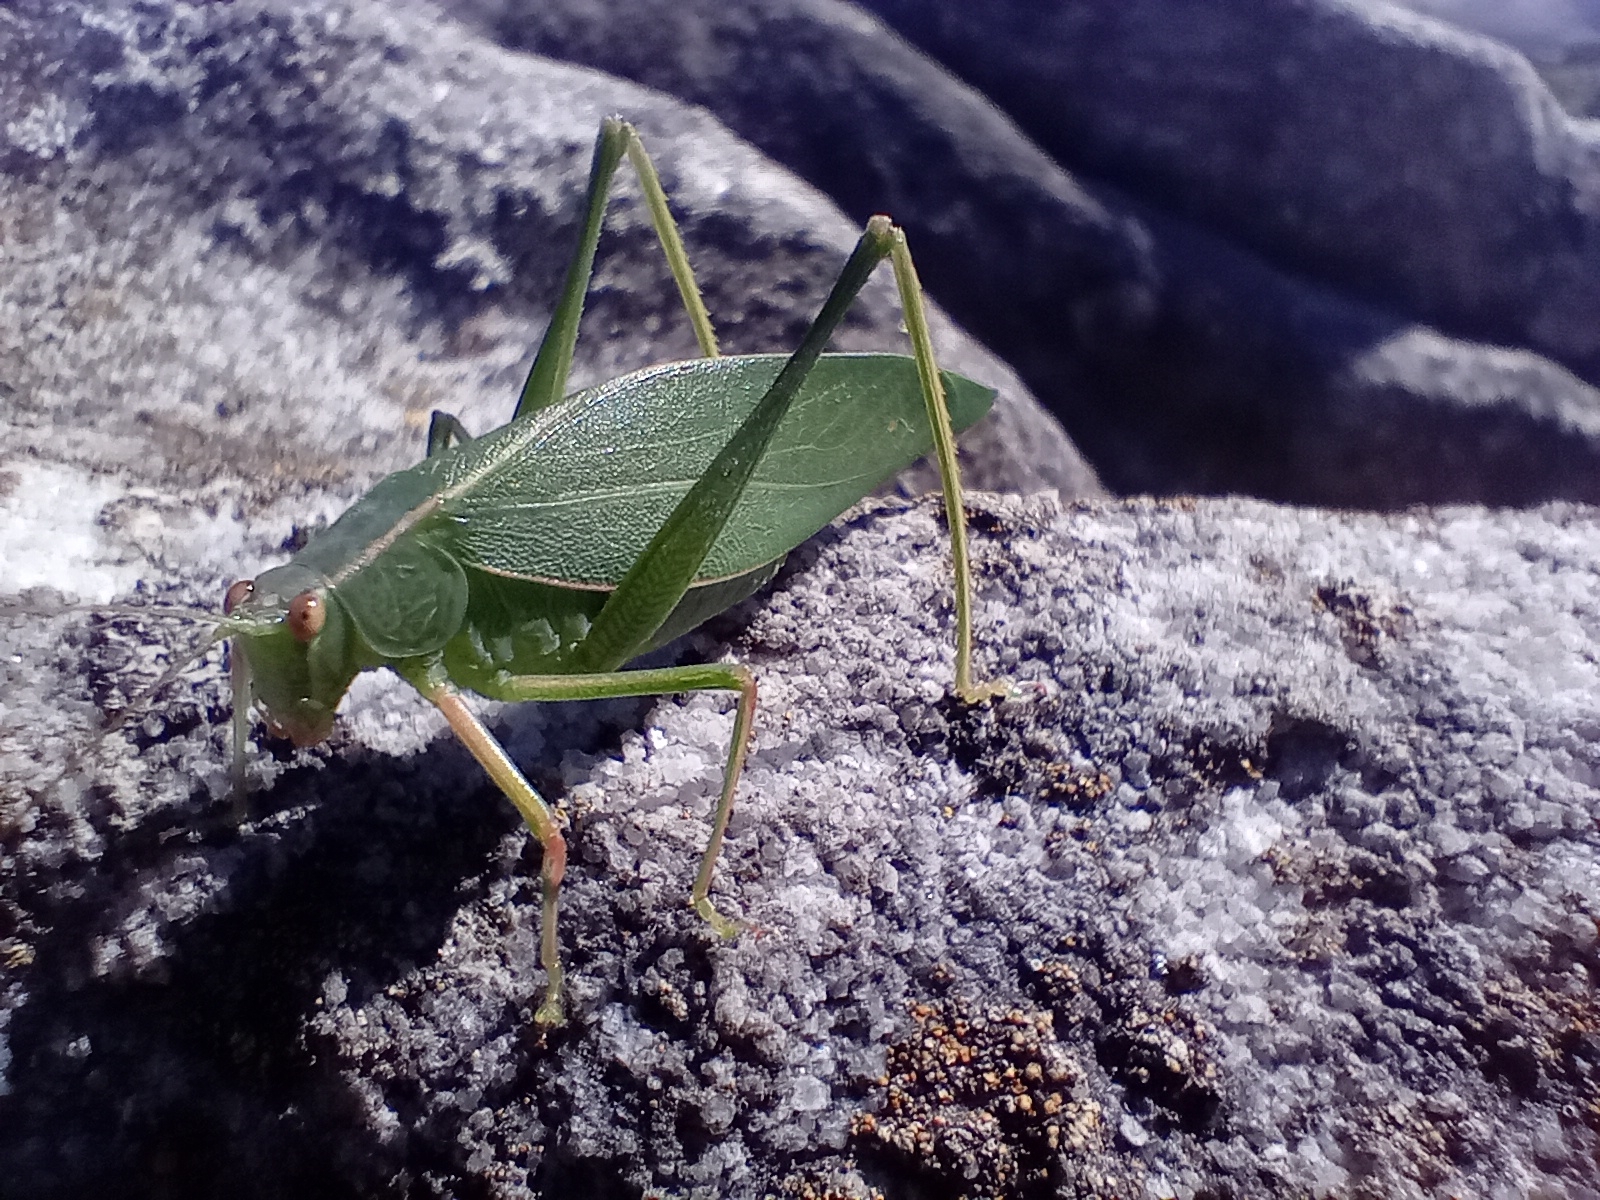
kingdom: Animalia
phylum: Arthropoda
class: Insecta
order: Orthoptera
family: Tettigoniidae
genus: Caedicia
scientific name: Caedicia simplex
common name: Common garden katydid
